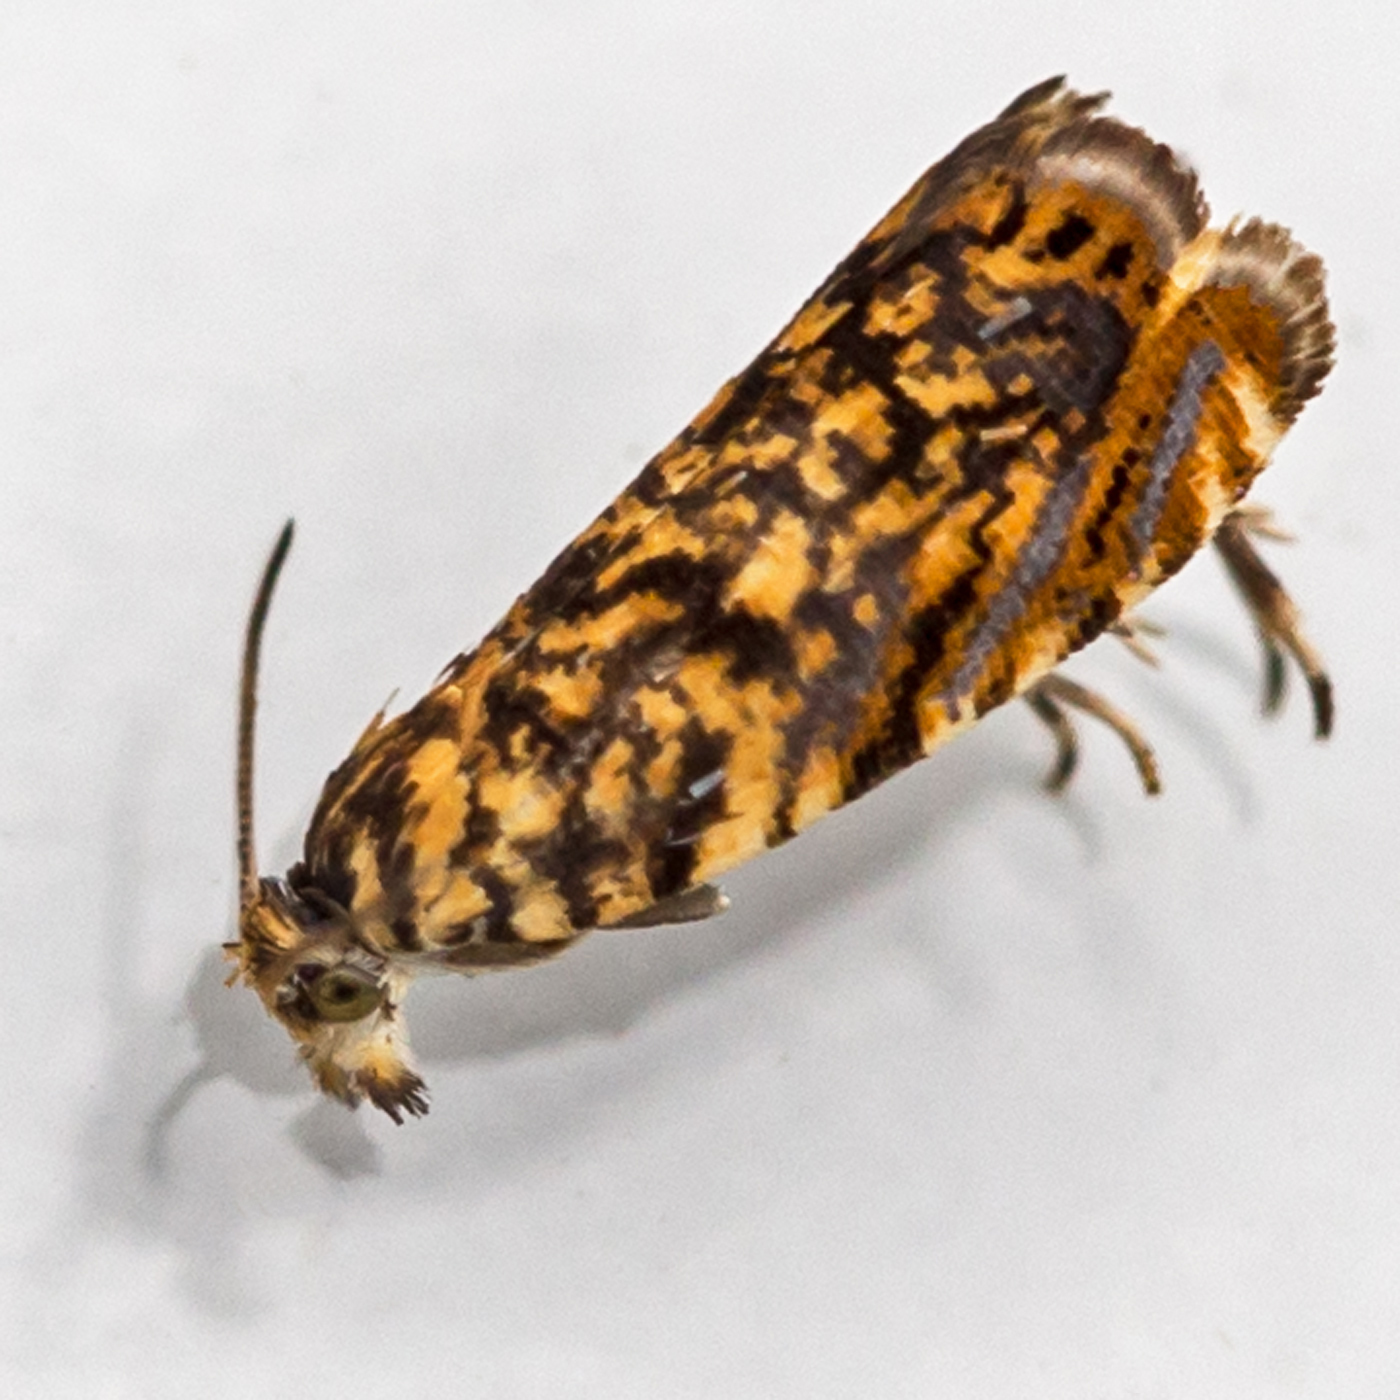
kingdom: Animalia
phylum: Arthropoda
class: Insecta
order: Lepidoptera
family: Tortricidae
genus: Dichrorampha
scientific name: Dichrorampha leopardana
